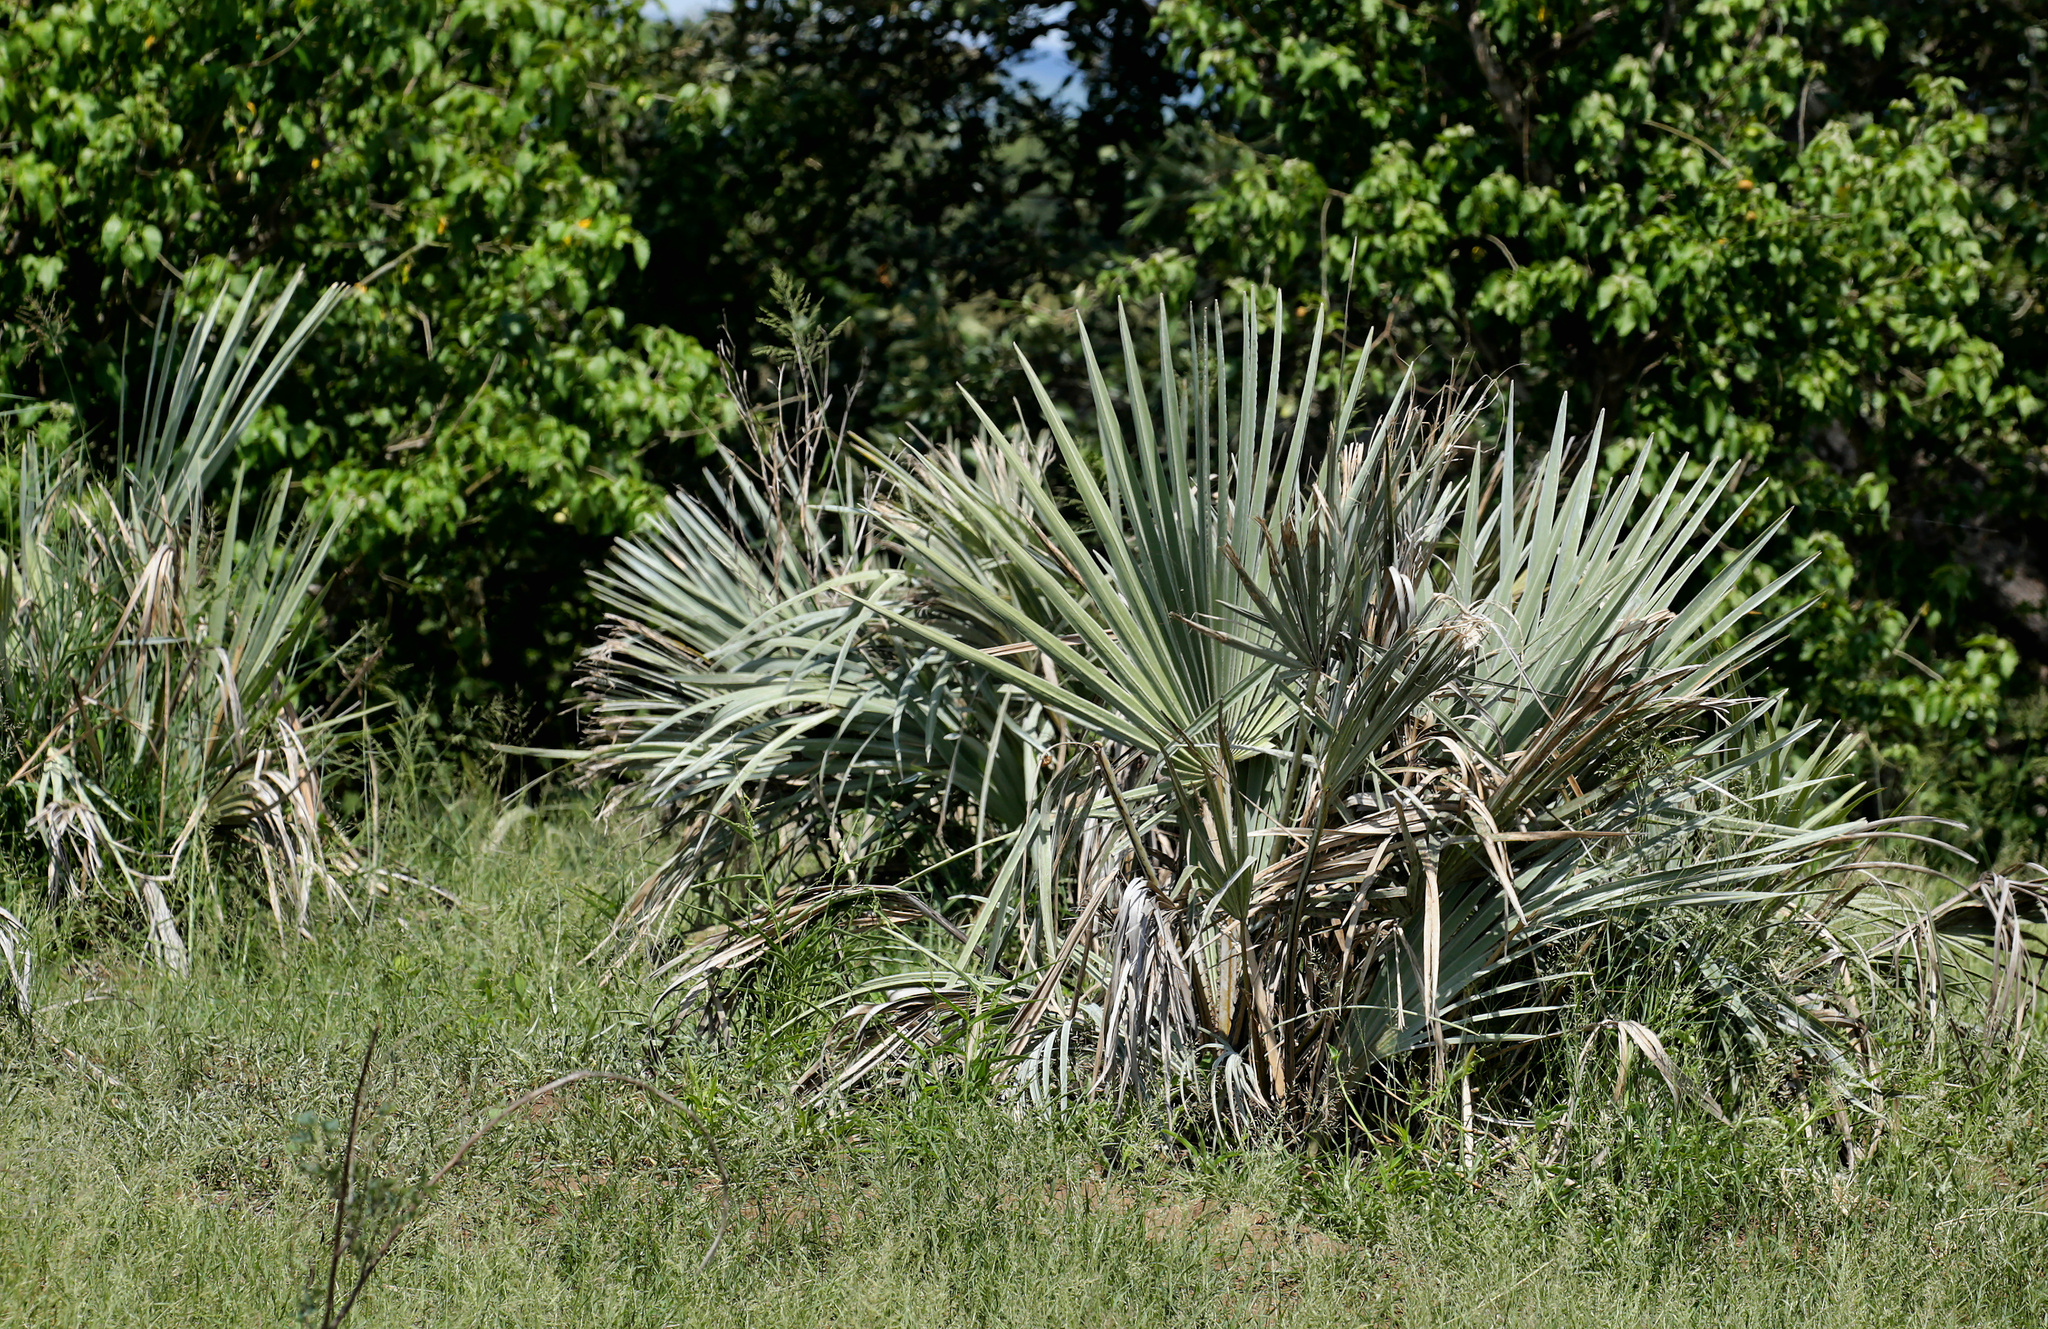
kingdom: Plantae
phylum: Tracheophyta
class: Liliopsida
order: Arecales
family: Arecaceae
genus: Hyphaene
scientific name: Hyphaene coriacea
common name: Ilala palm
